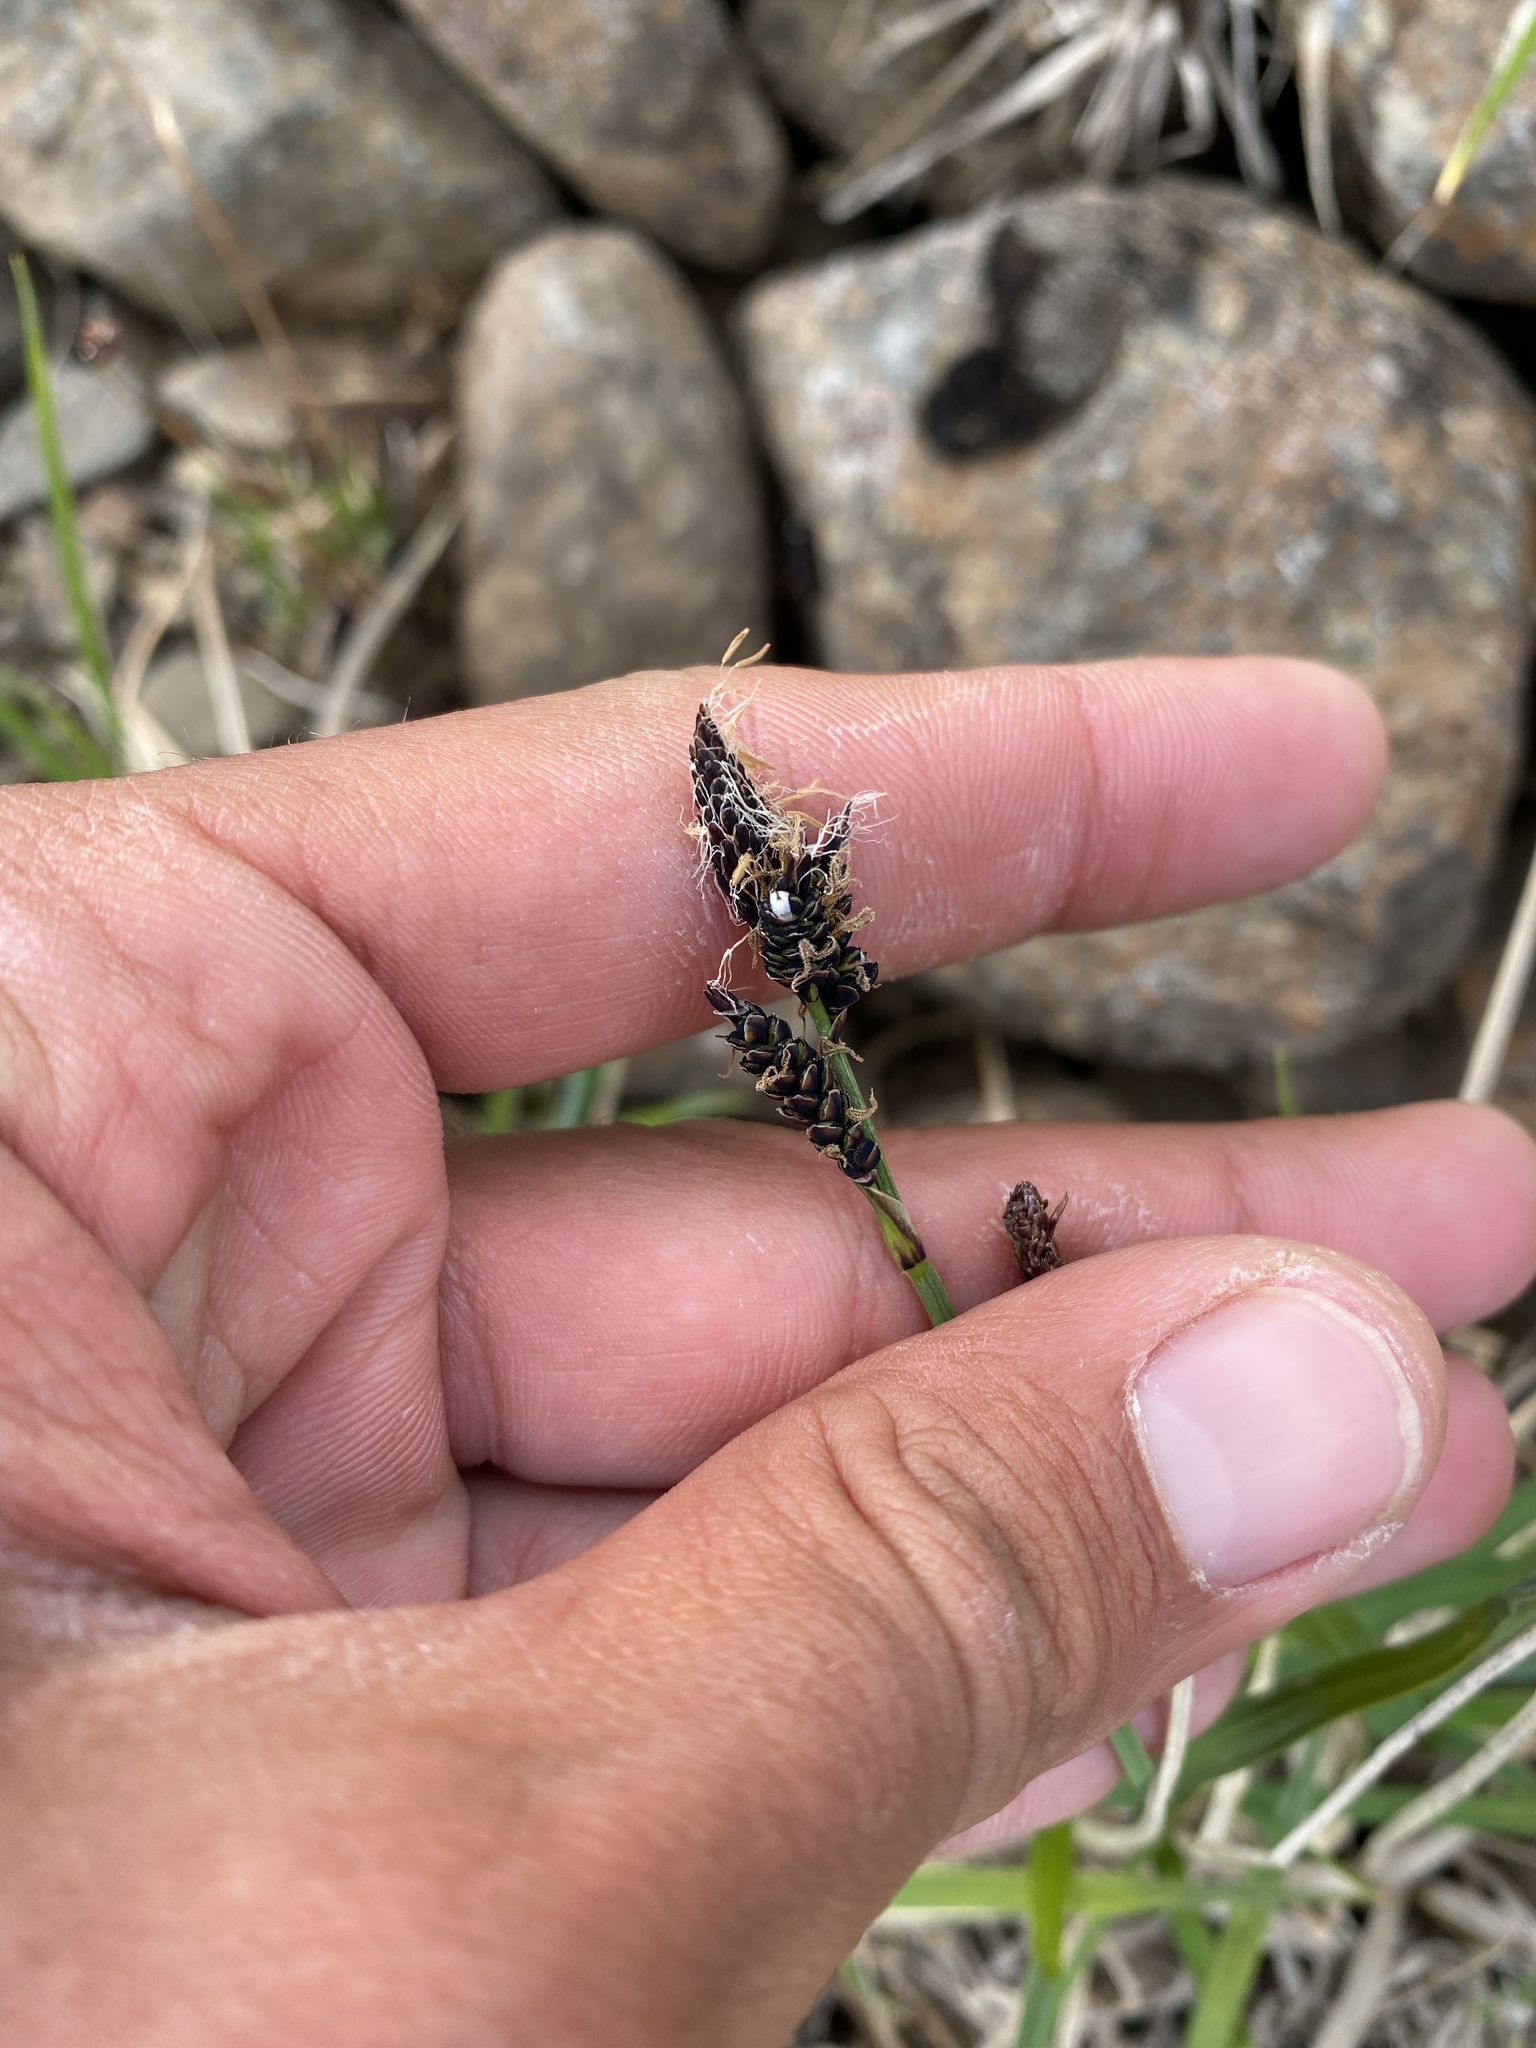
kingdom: Plantae
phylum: Tracheophyta
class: Liliopsida
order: Poales
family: Cyperaceae
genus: Carex
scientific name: Carex bigelowii
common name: Stiff sedge
